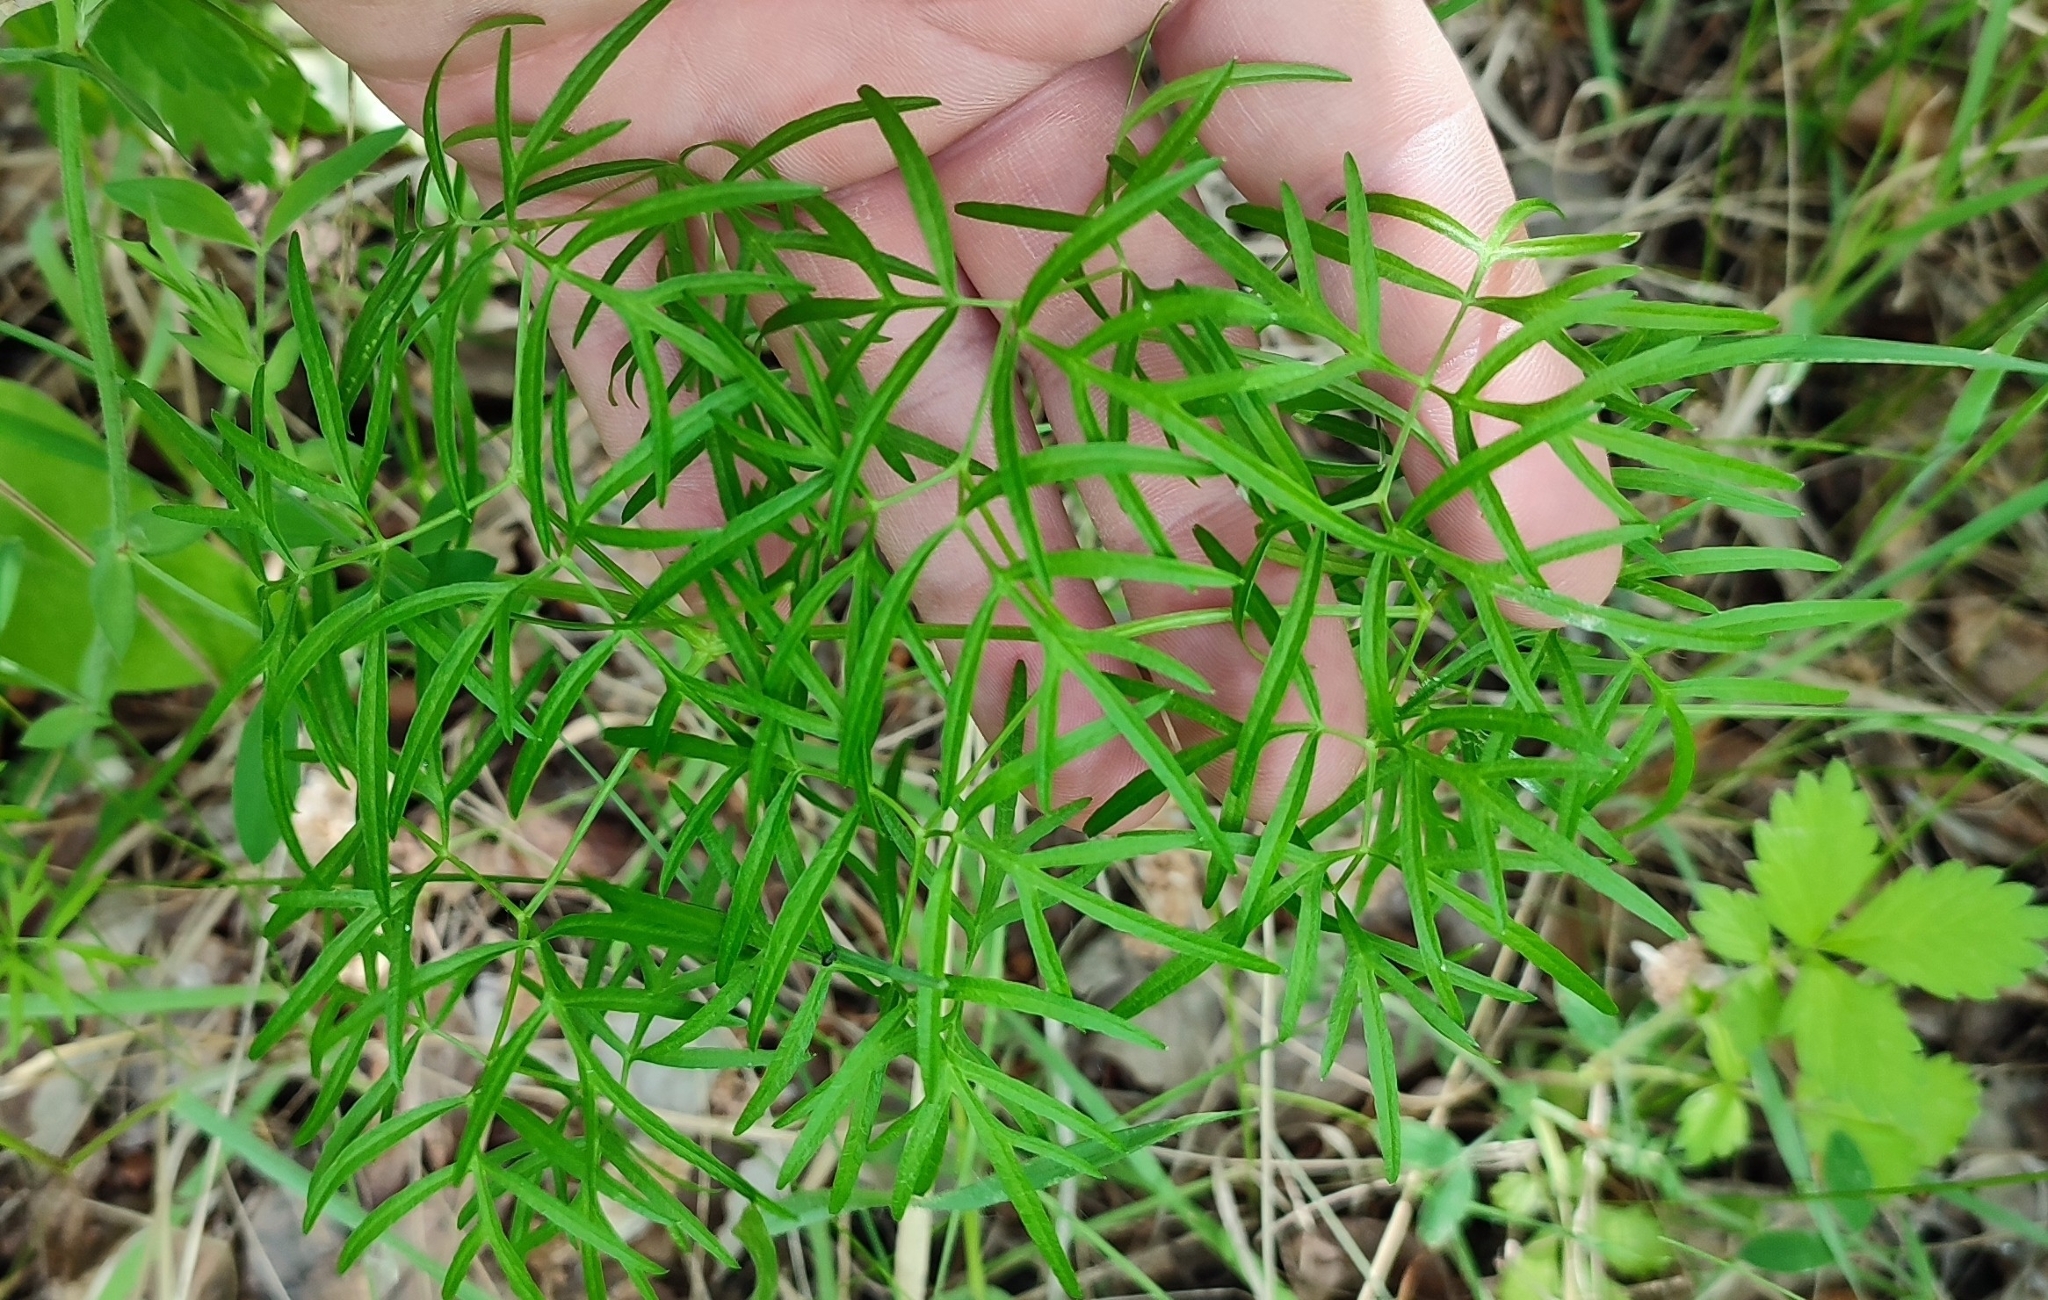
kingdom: Plantae
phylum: Tracheophyta
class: Magnoliopsida
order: Apiales
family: Apiaceae
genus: Cenolophium
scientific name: Cenolophium fischeri
